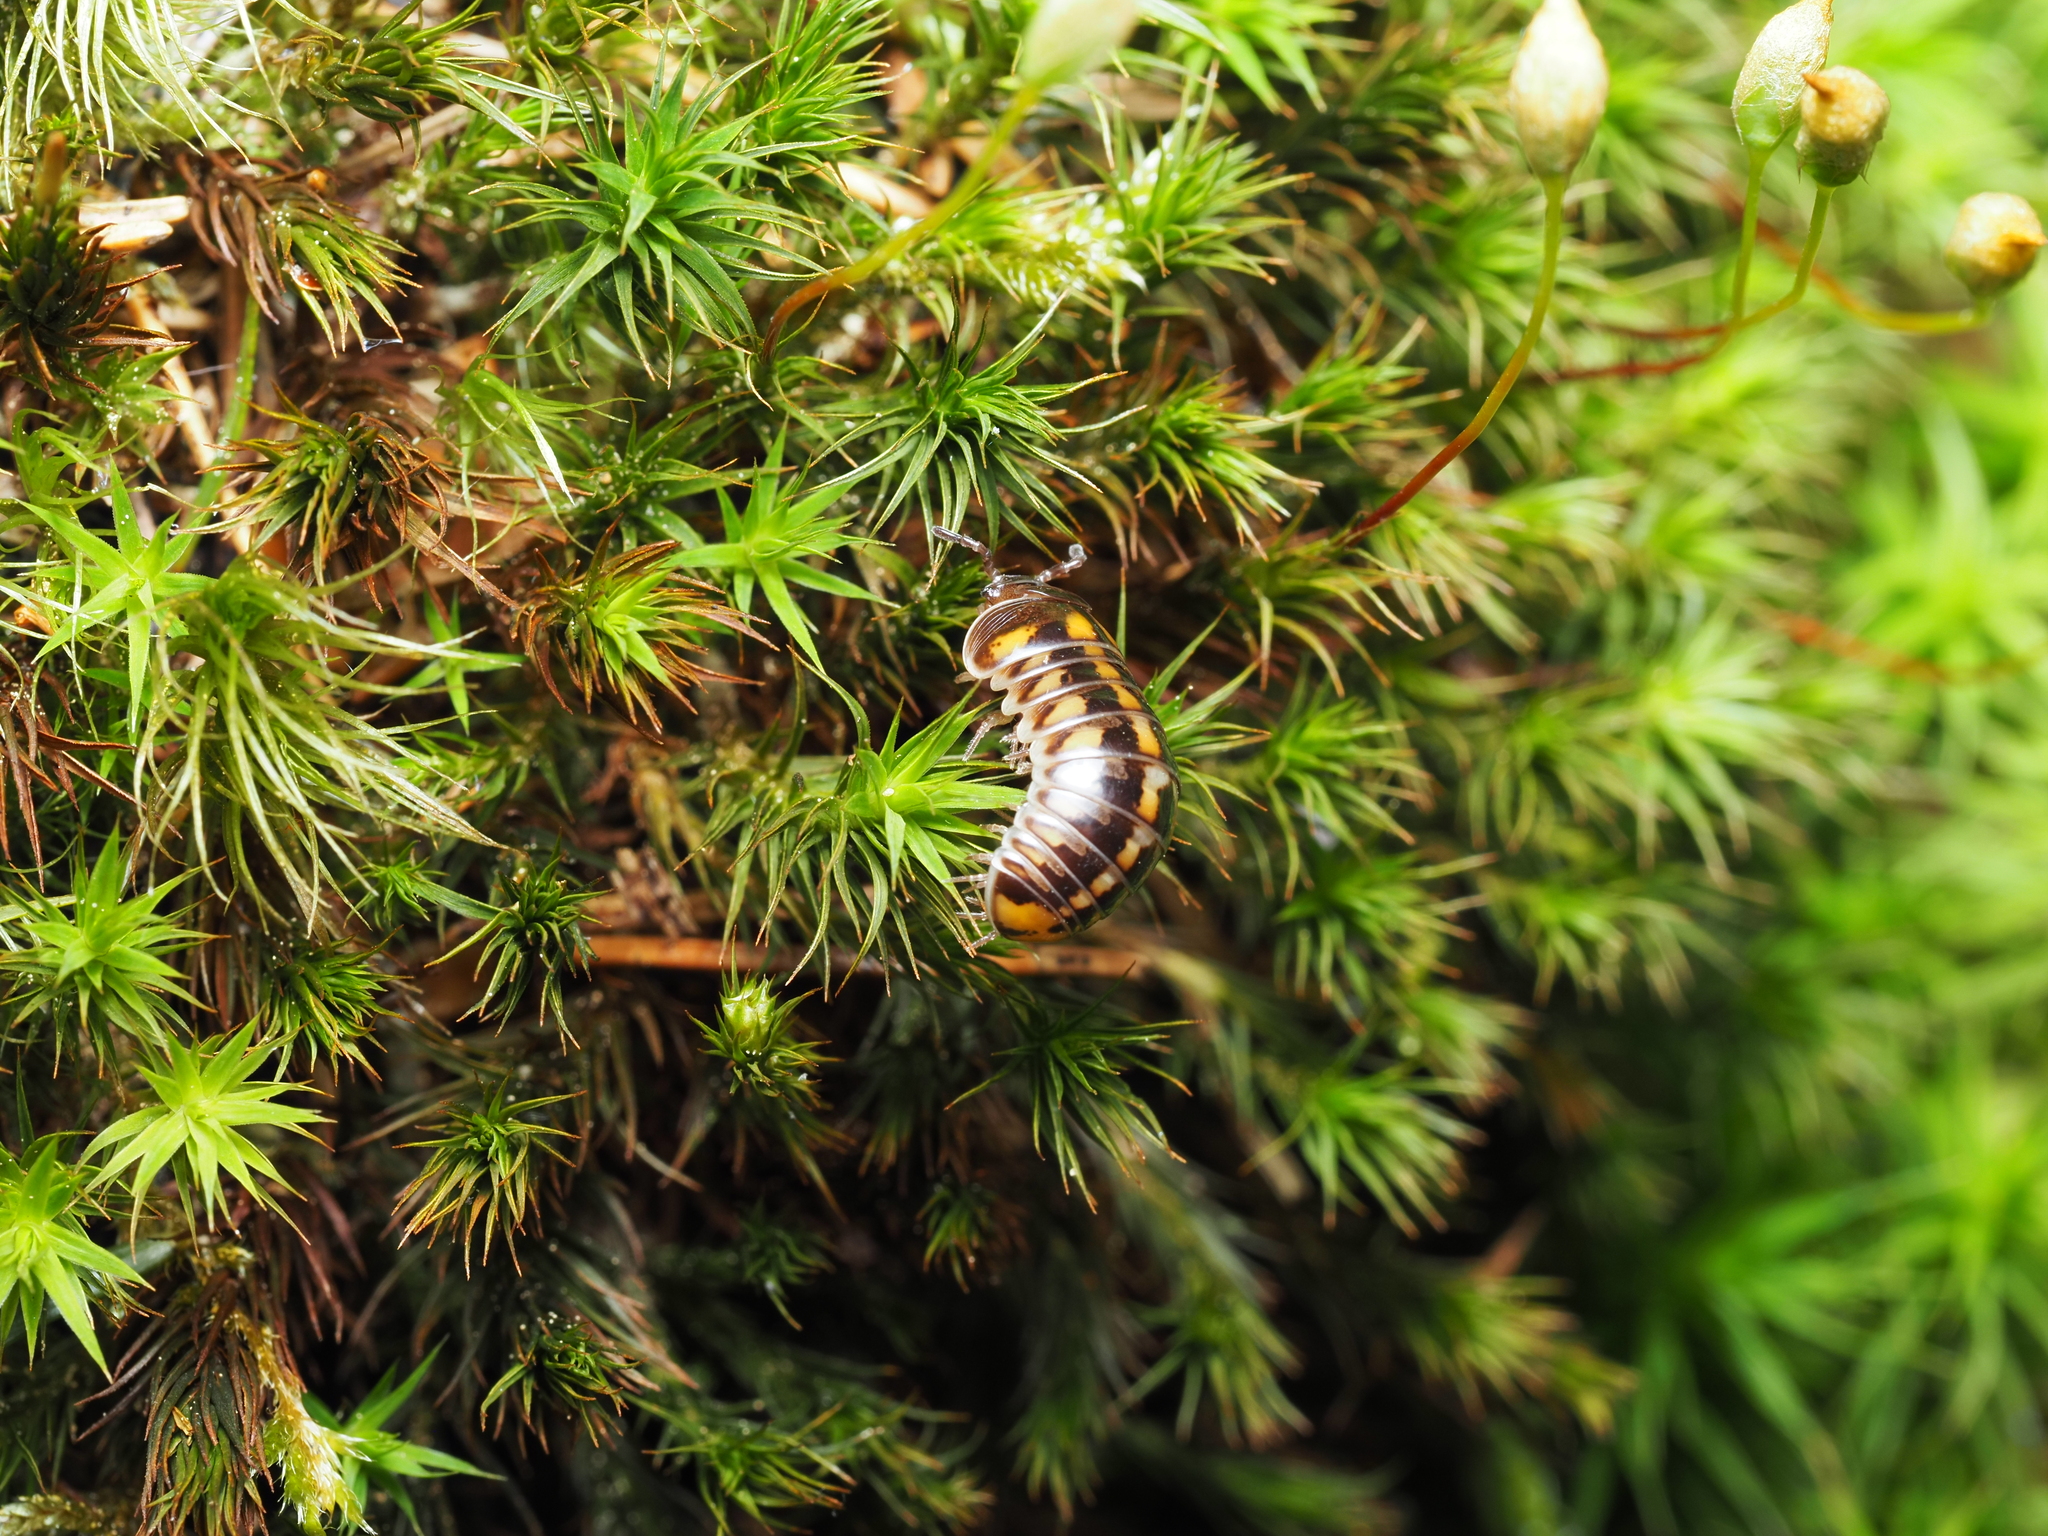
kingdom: Animalia
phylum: Arthropoda
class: Diplopoda
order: Glomerida
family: Glomeridae
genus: Glomeris
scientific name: Glomeris connexa
